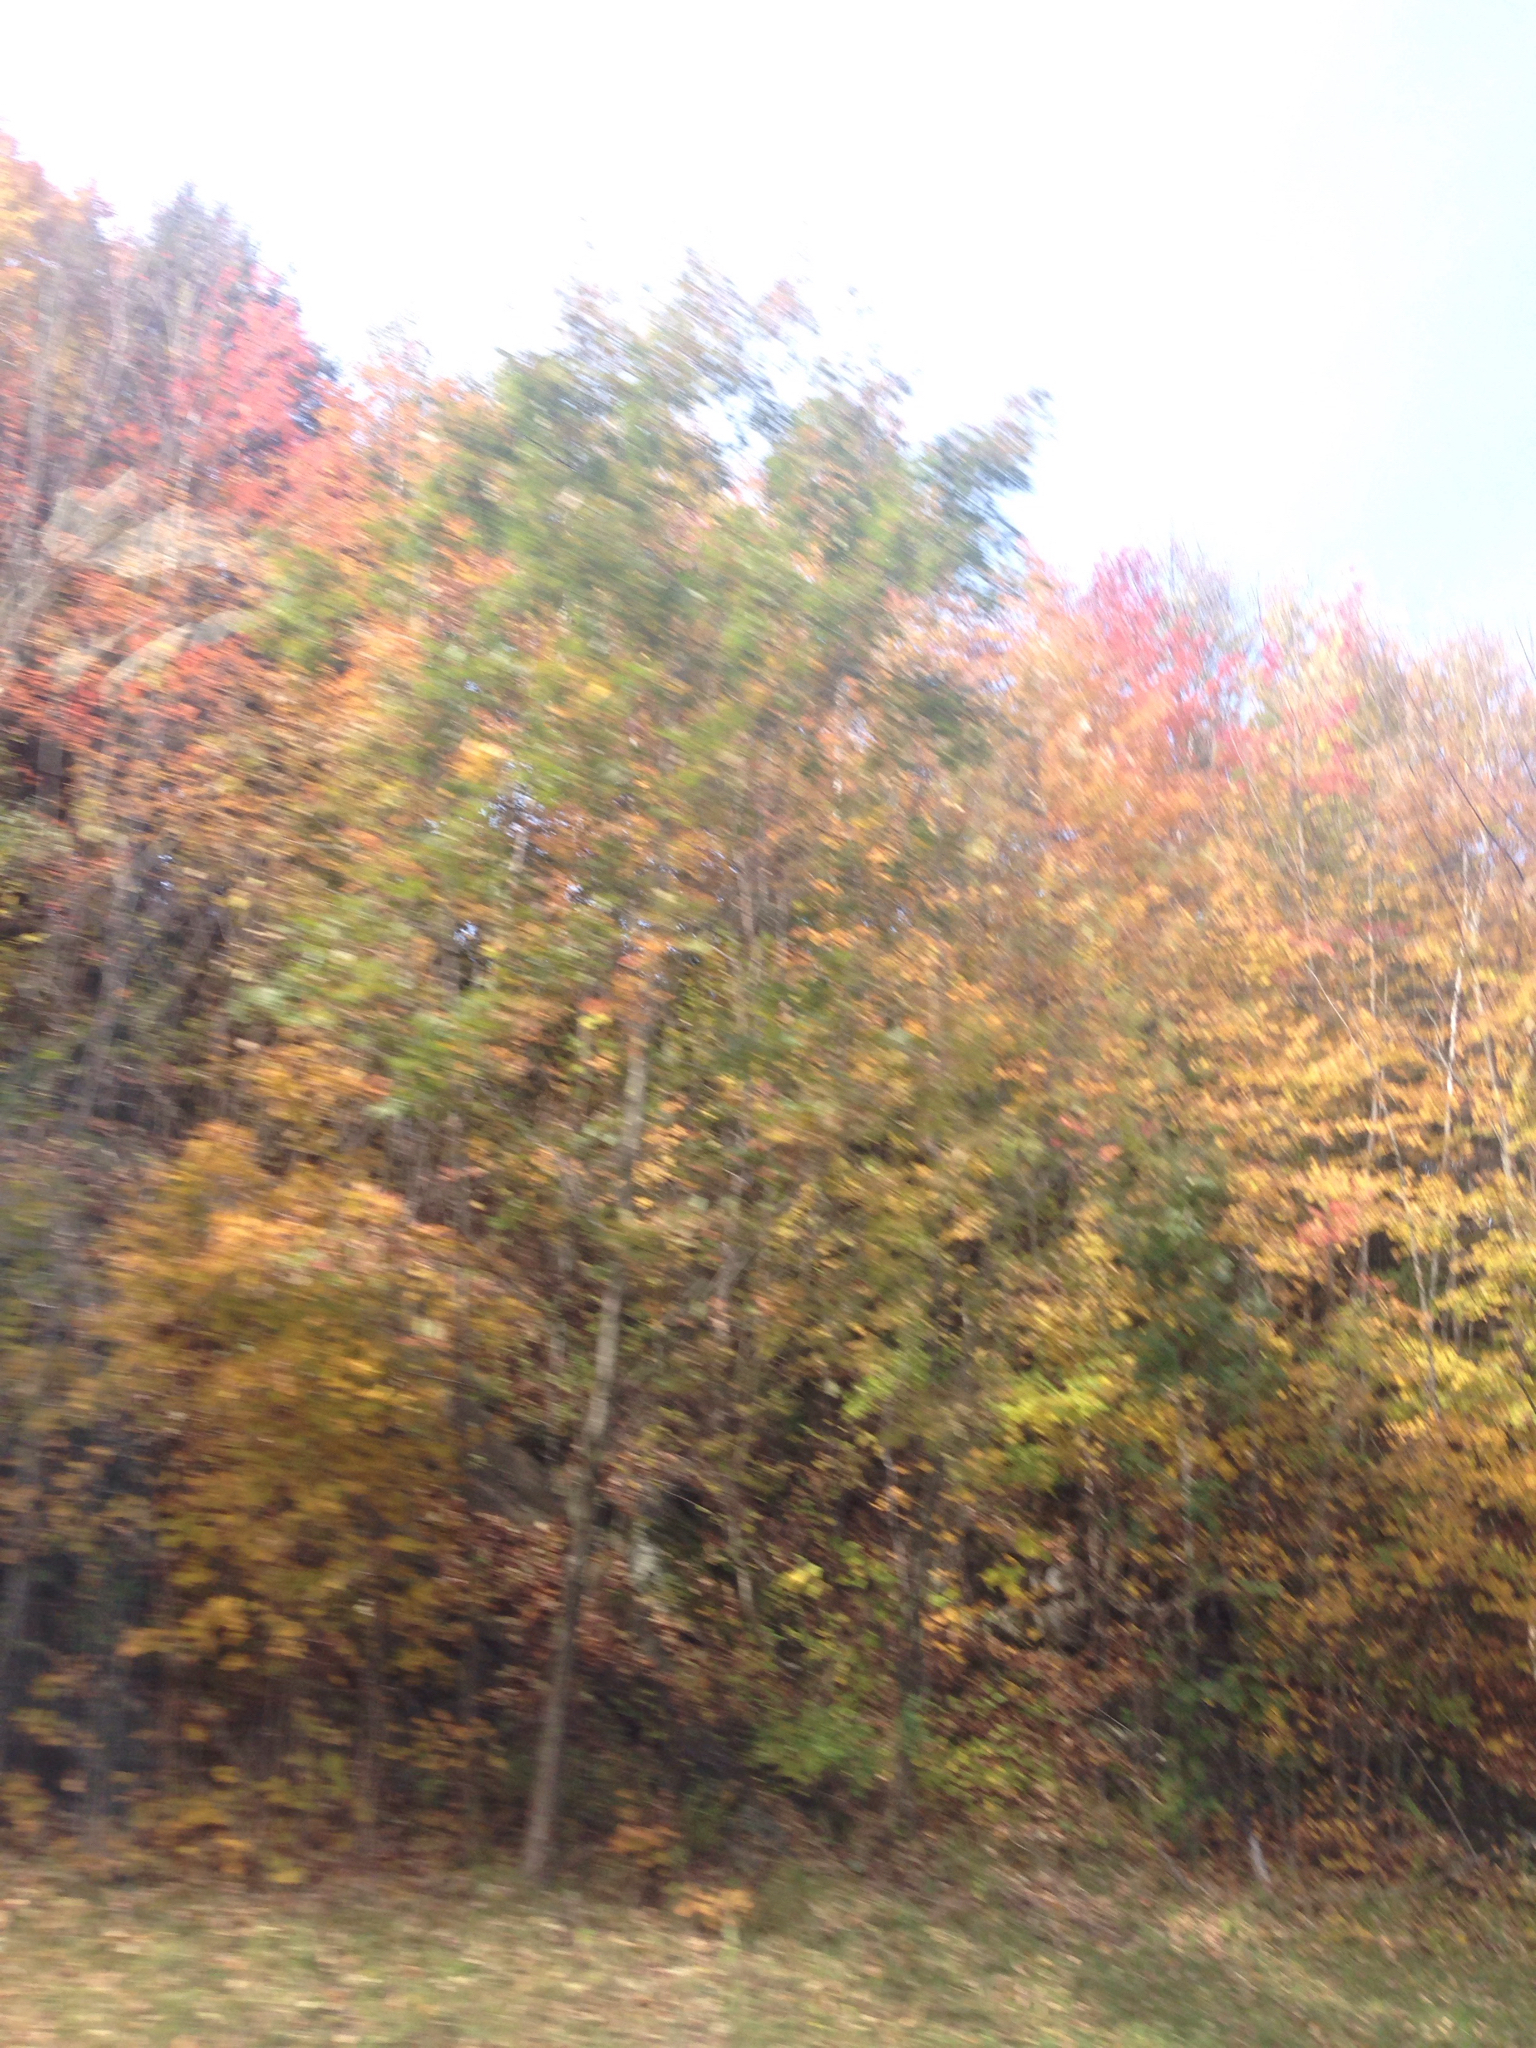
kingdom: Plantae
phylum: Tracheophyta
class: Magnoliopsida
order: Fagales
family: Fagaceae
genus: Quercus
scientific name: Quercus rubra
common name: Red oak
